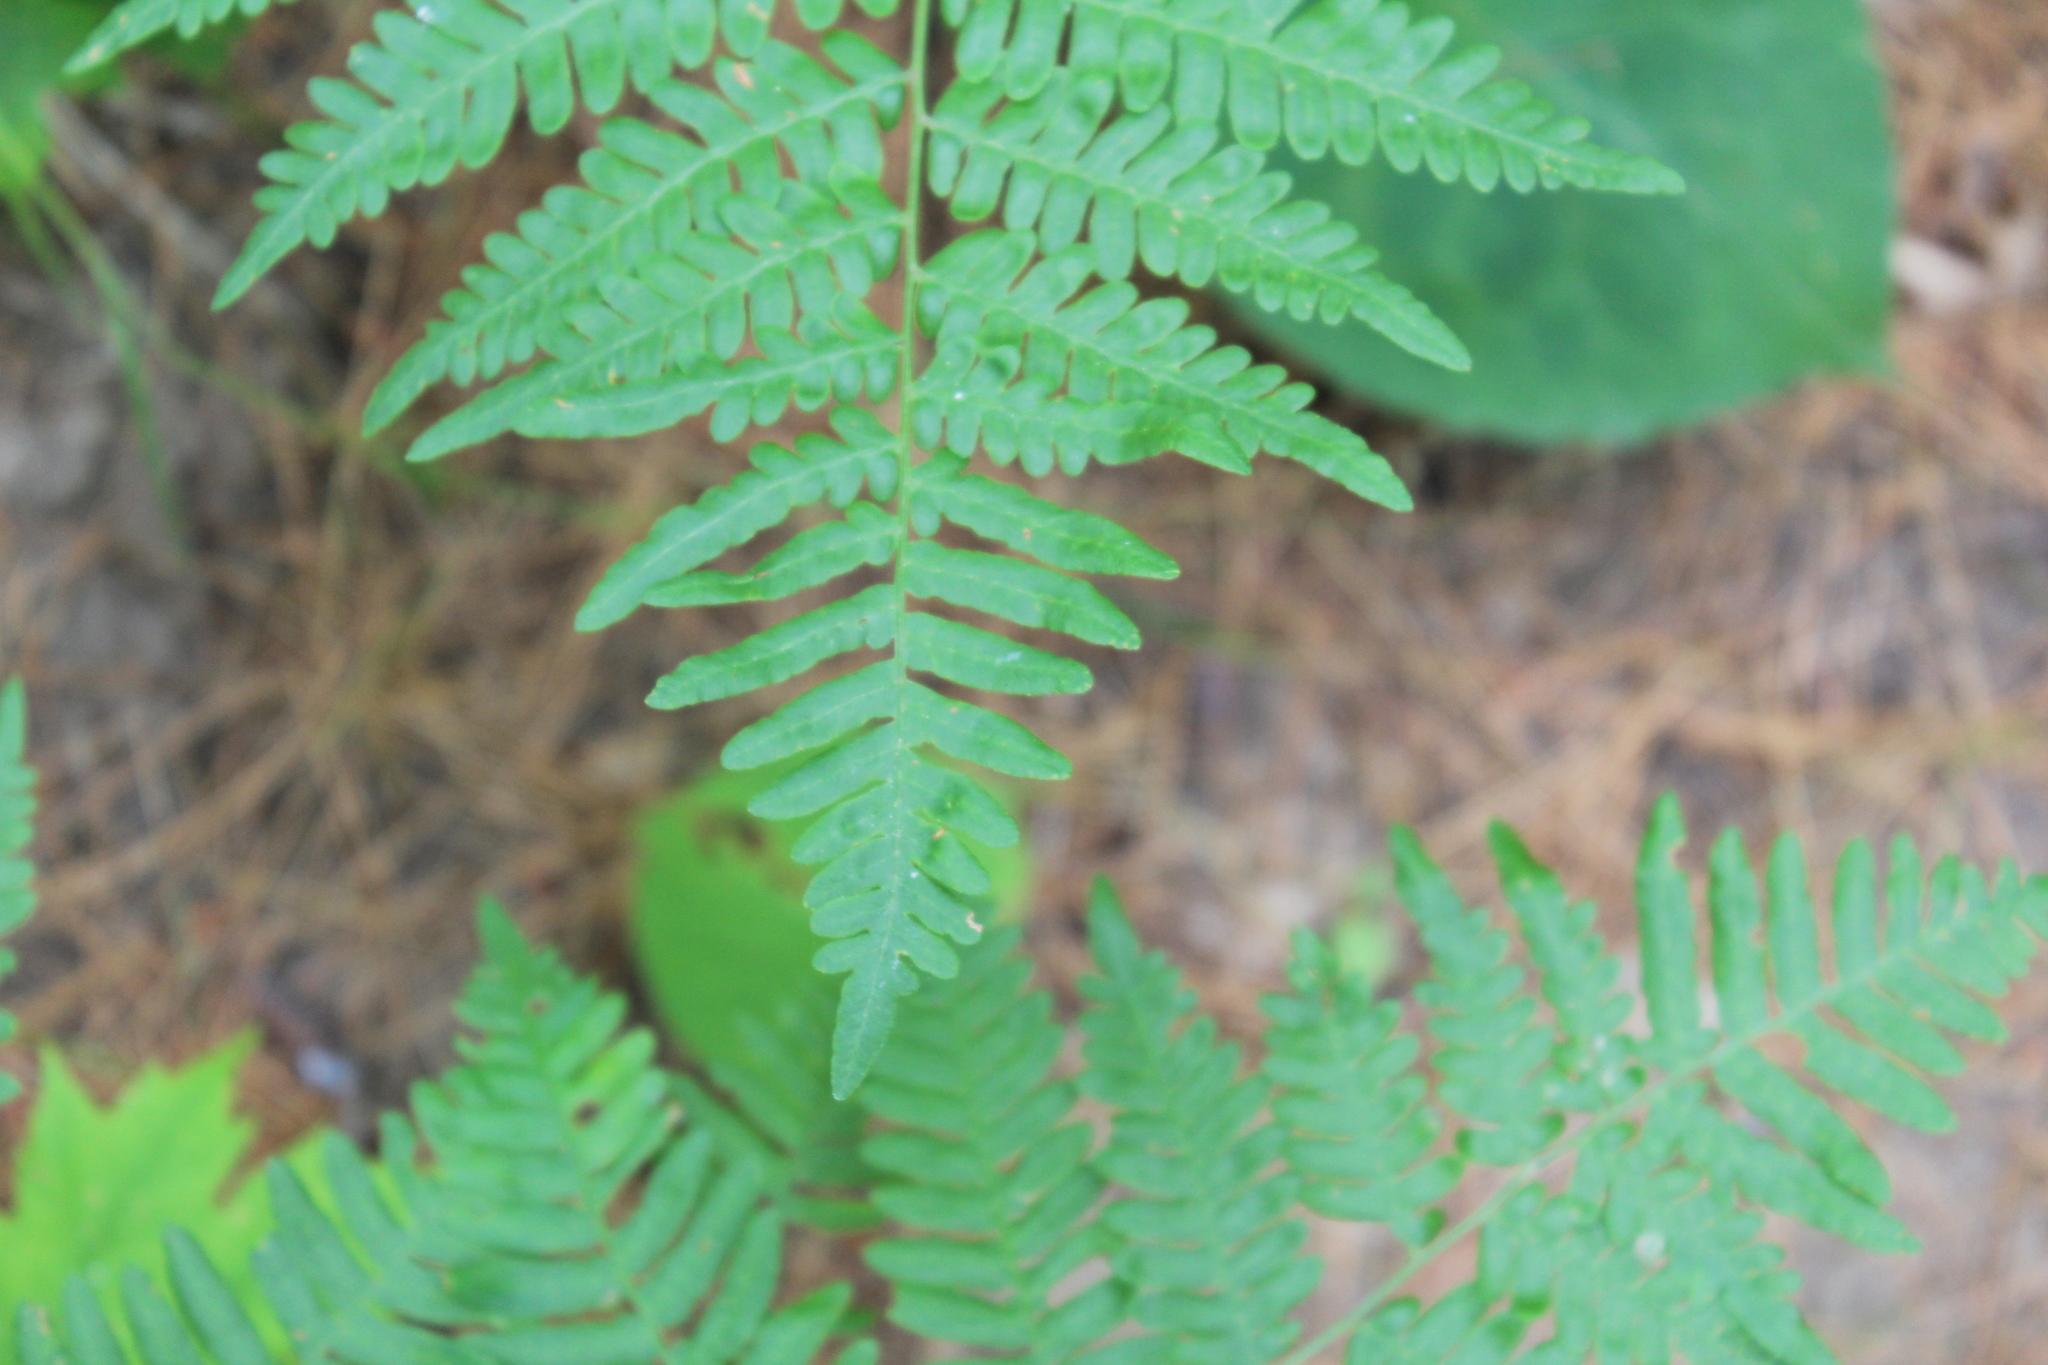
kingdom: Plantae
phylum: Tracheophyta
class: Polypodiopsida
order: Polypodiales
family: Dennstaedtiaceae
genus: Pteridium
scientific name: Pteridium aquilinum
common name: Bracken
